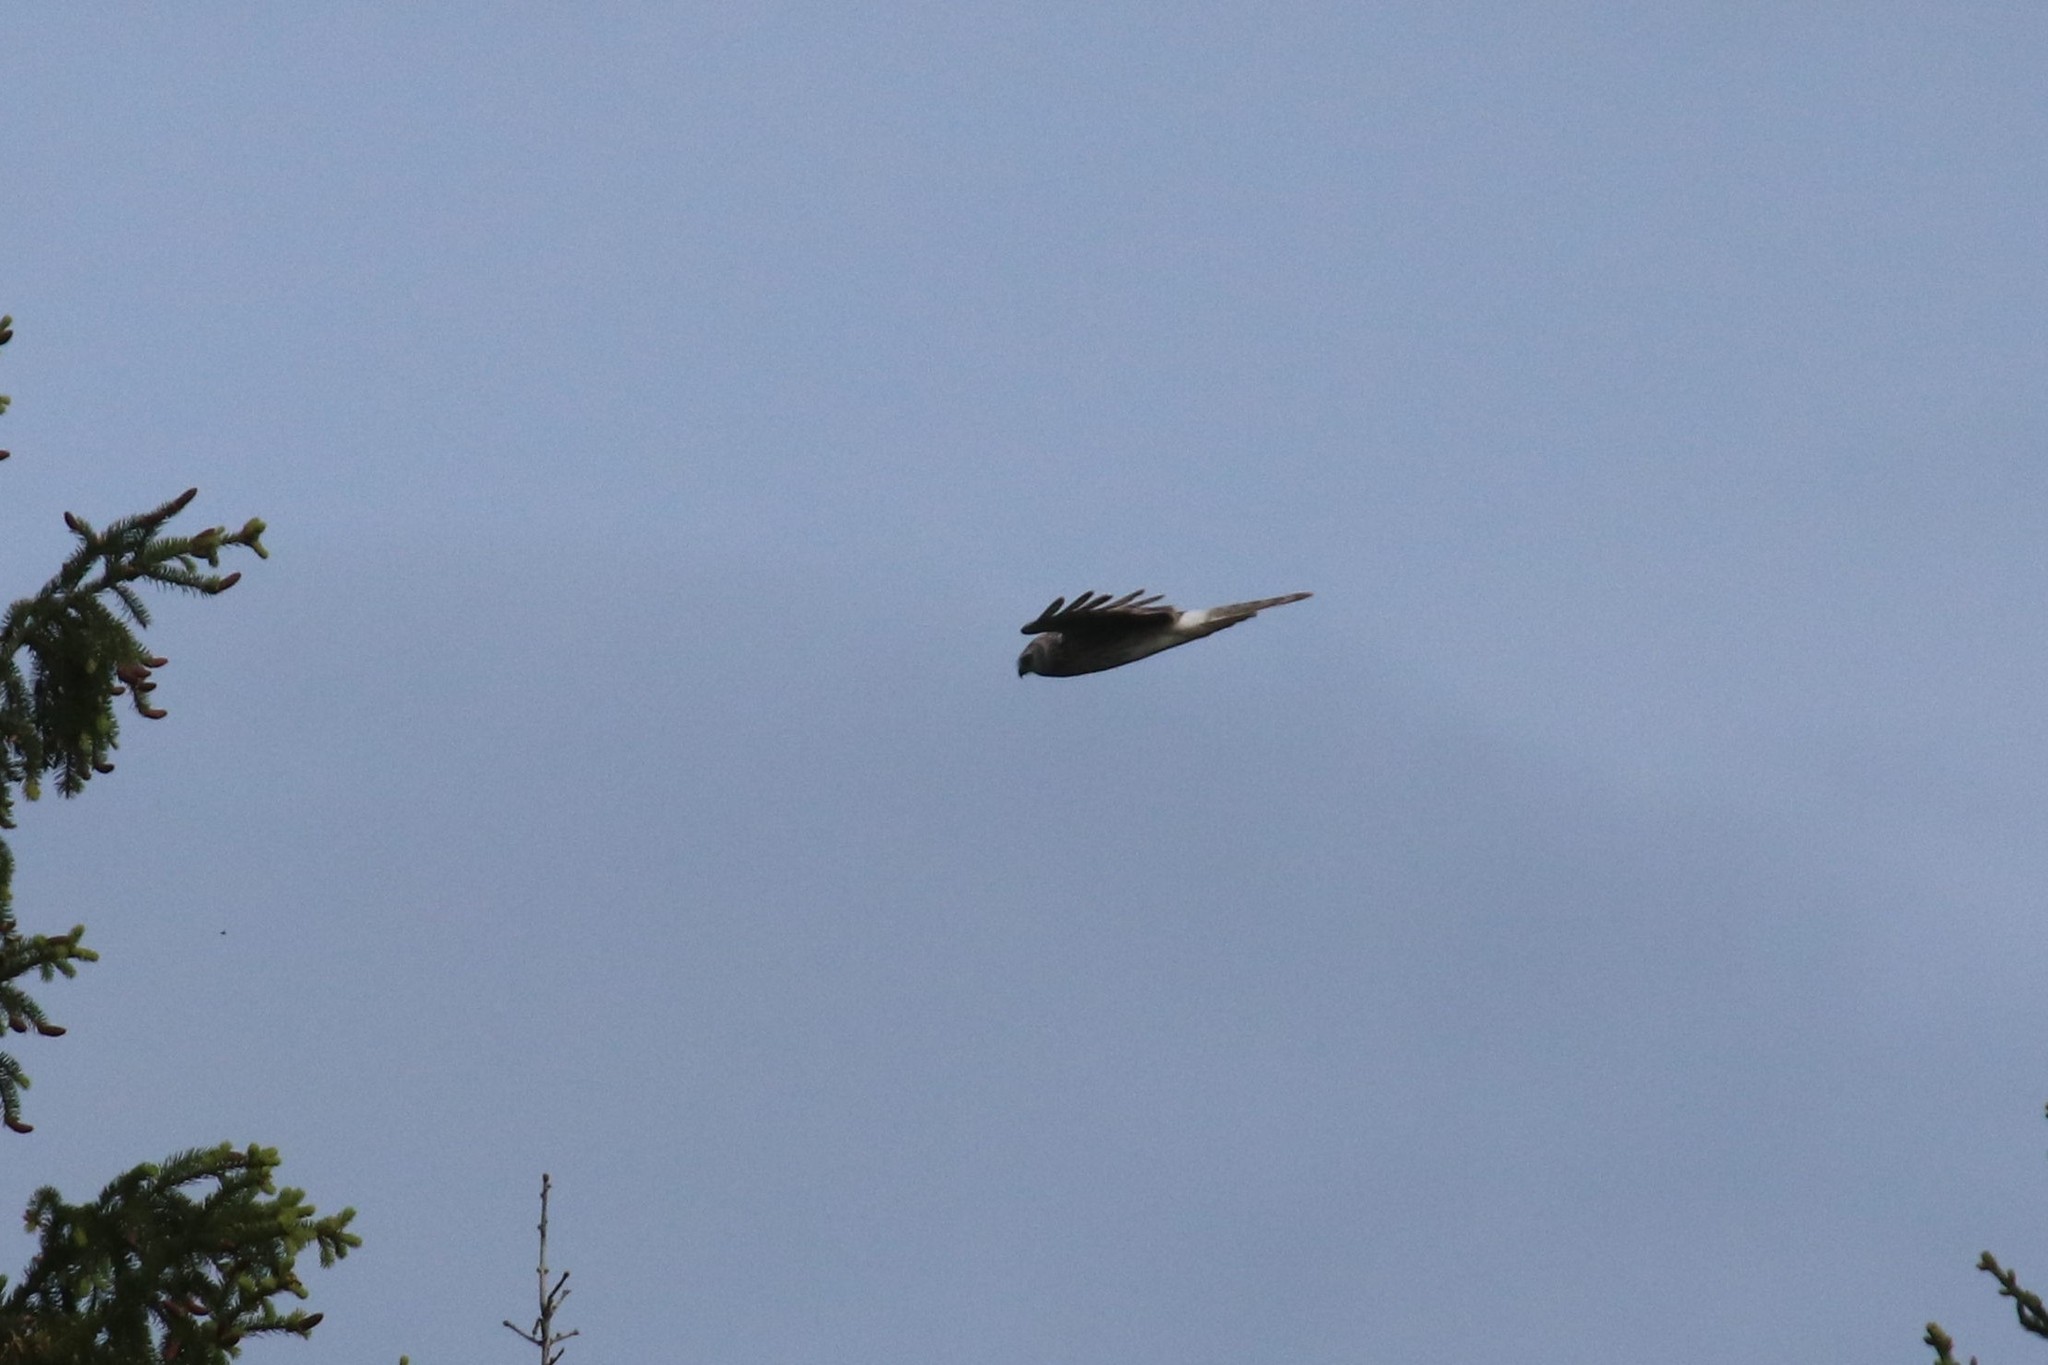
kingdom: Animalia
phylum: Chordata
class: Aves
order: Accipitriformes
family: Accipitridae
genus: Circus
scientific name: Circus cyaneus
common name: Hen harrier
